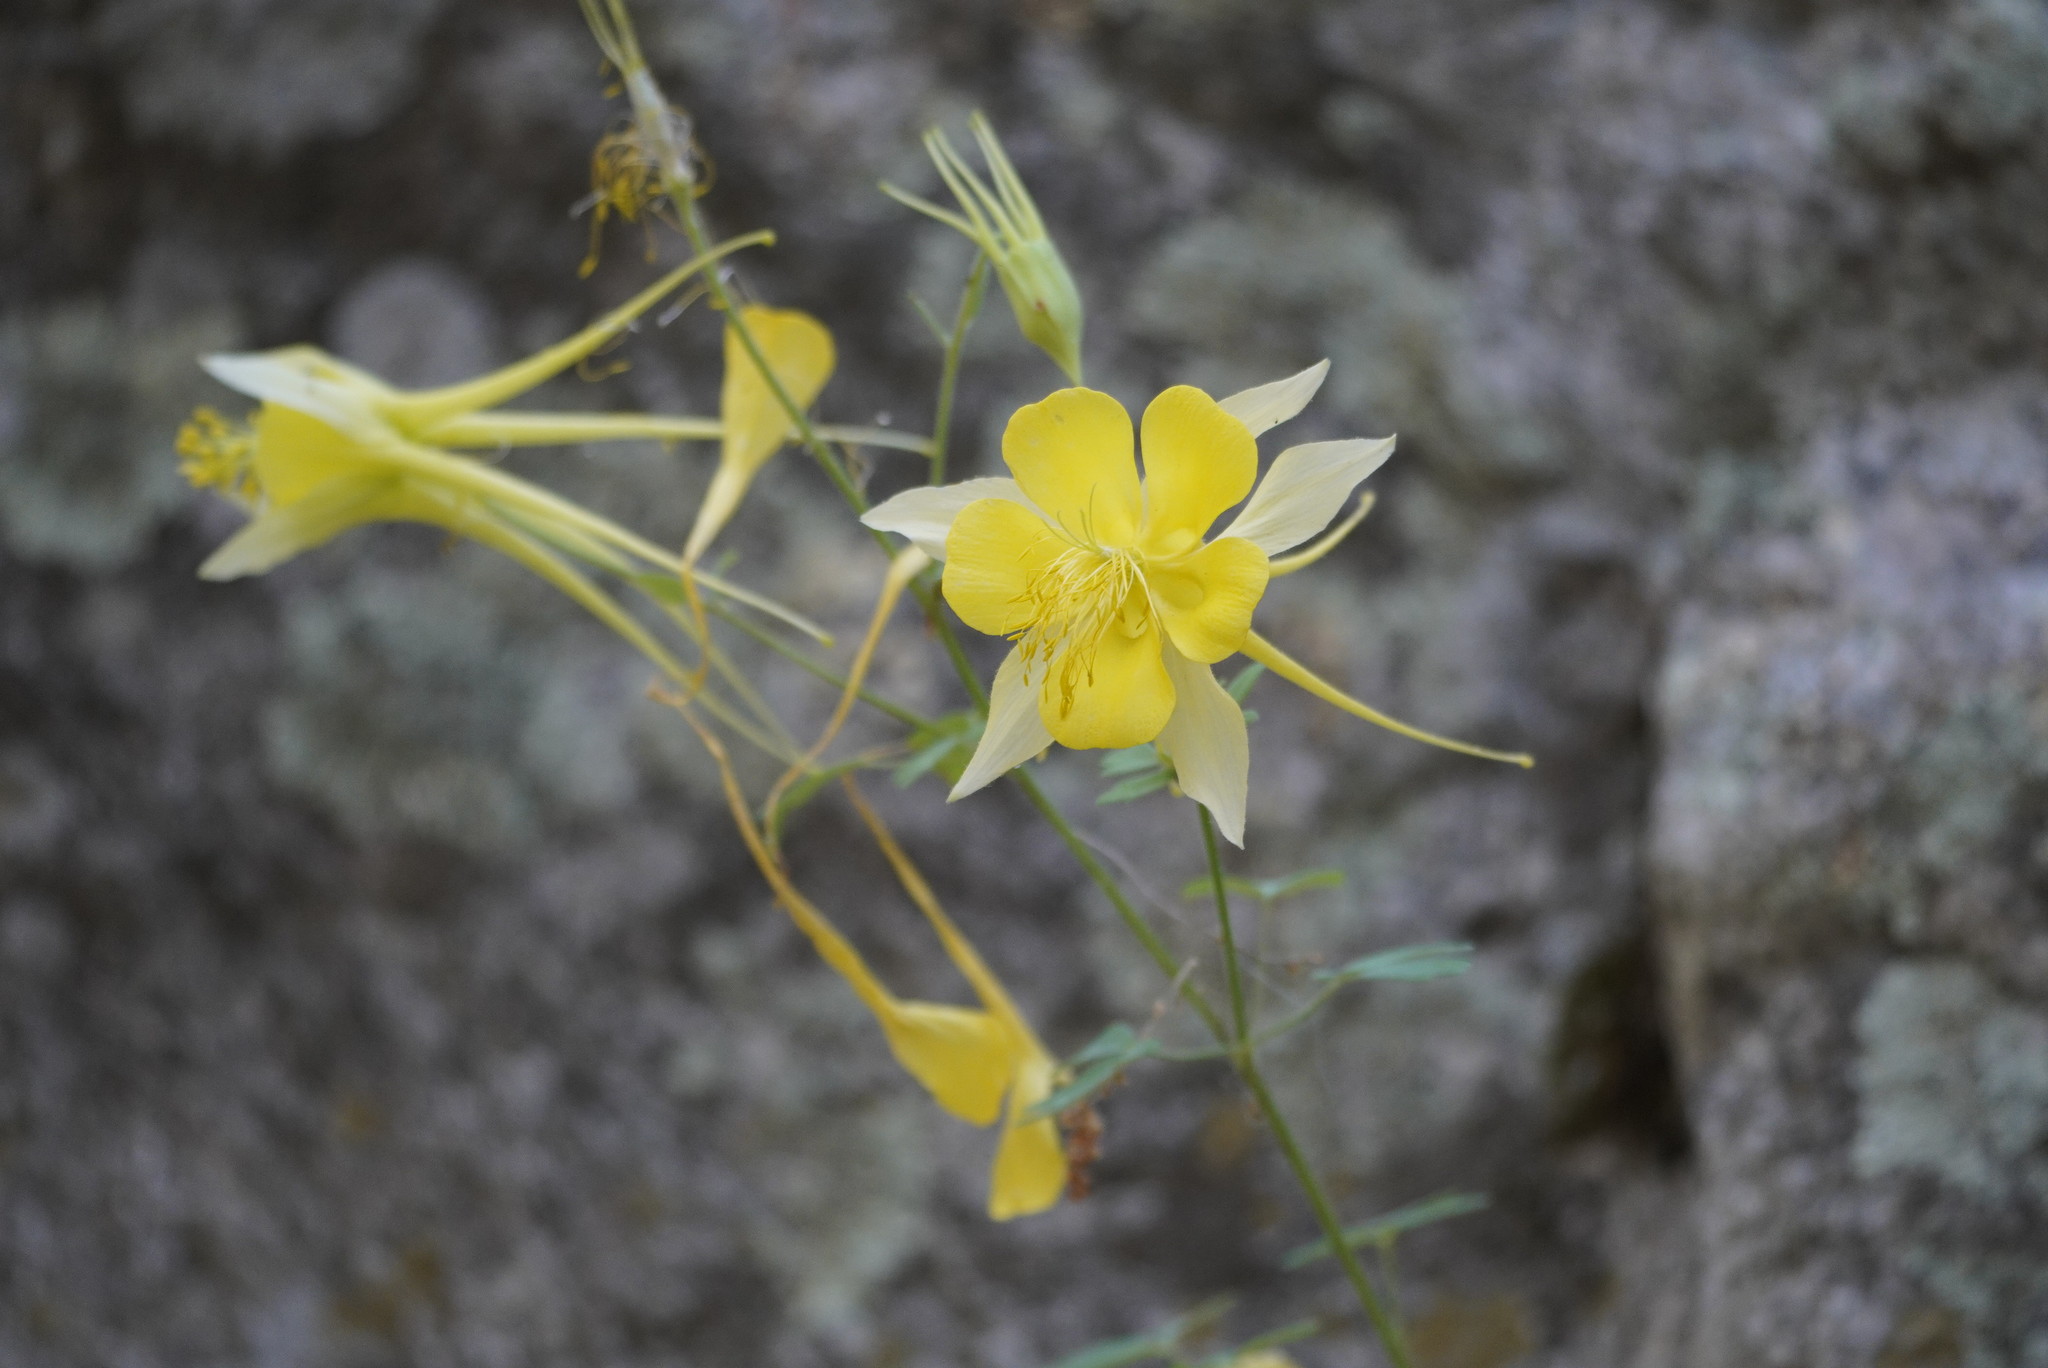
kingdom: Plantae
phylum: Tracheophyta
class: Magnoliopsida
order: Ranunculales
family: Ranunculaceae
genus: Aquilegia
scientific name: Aquilegia chrysantha
